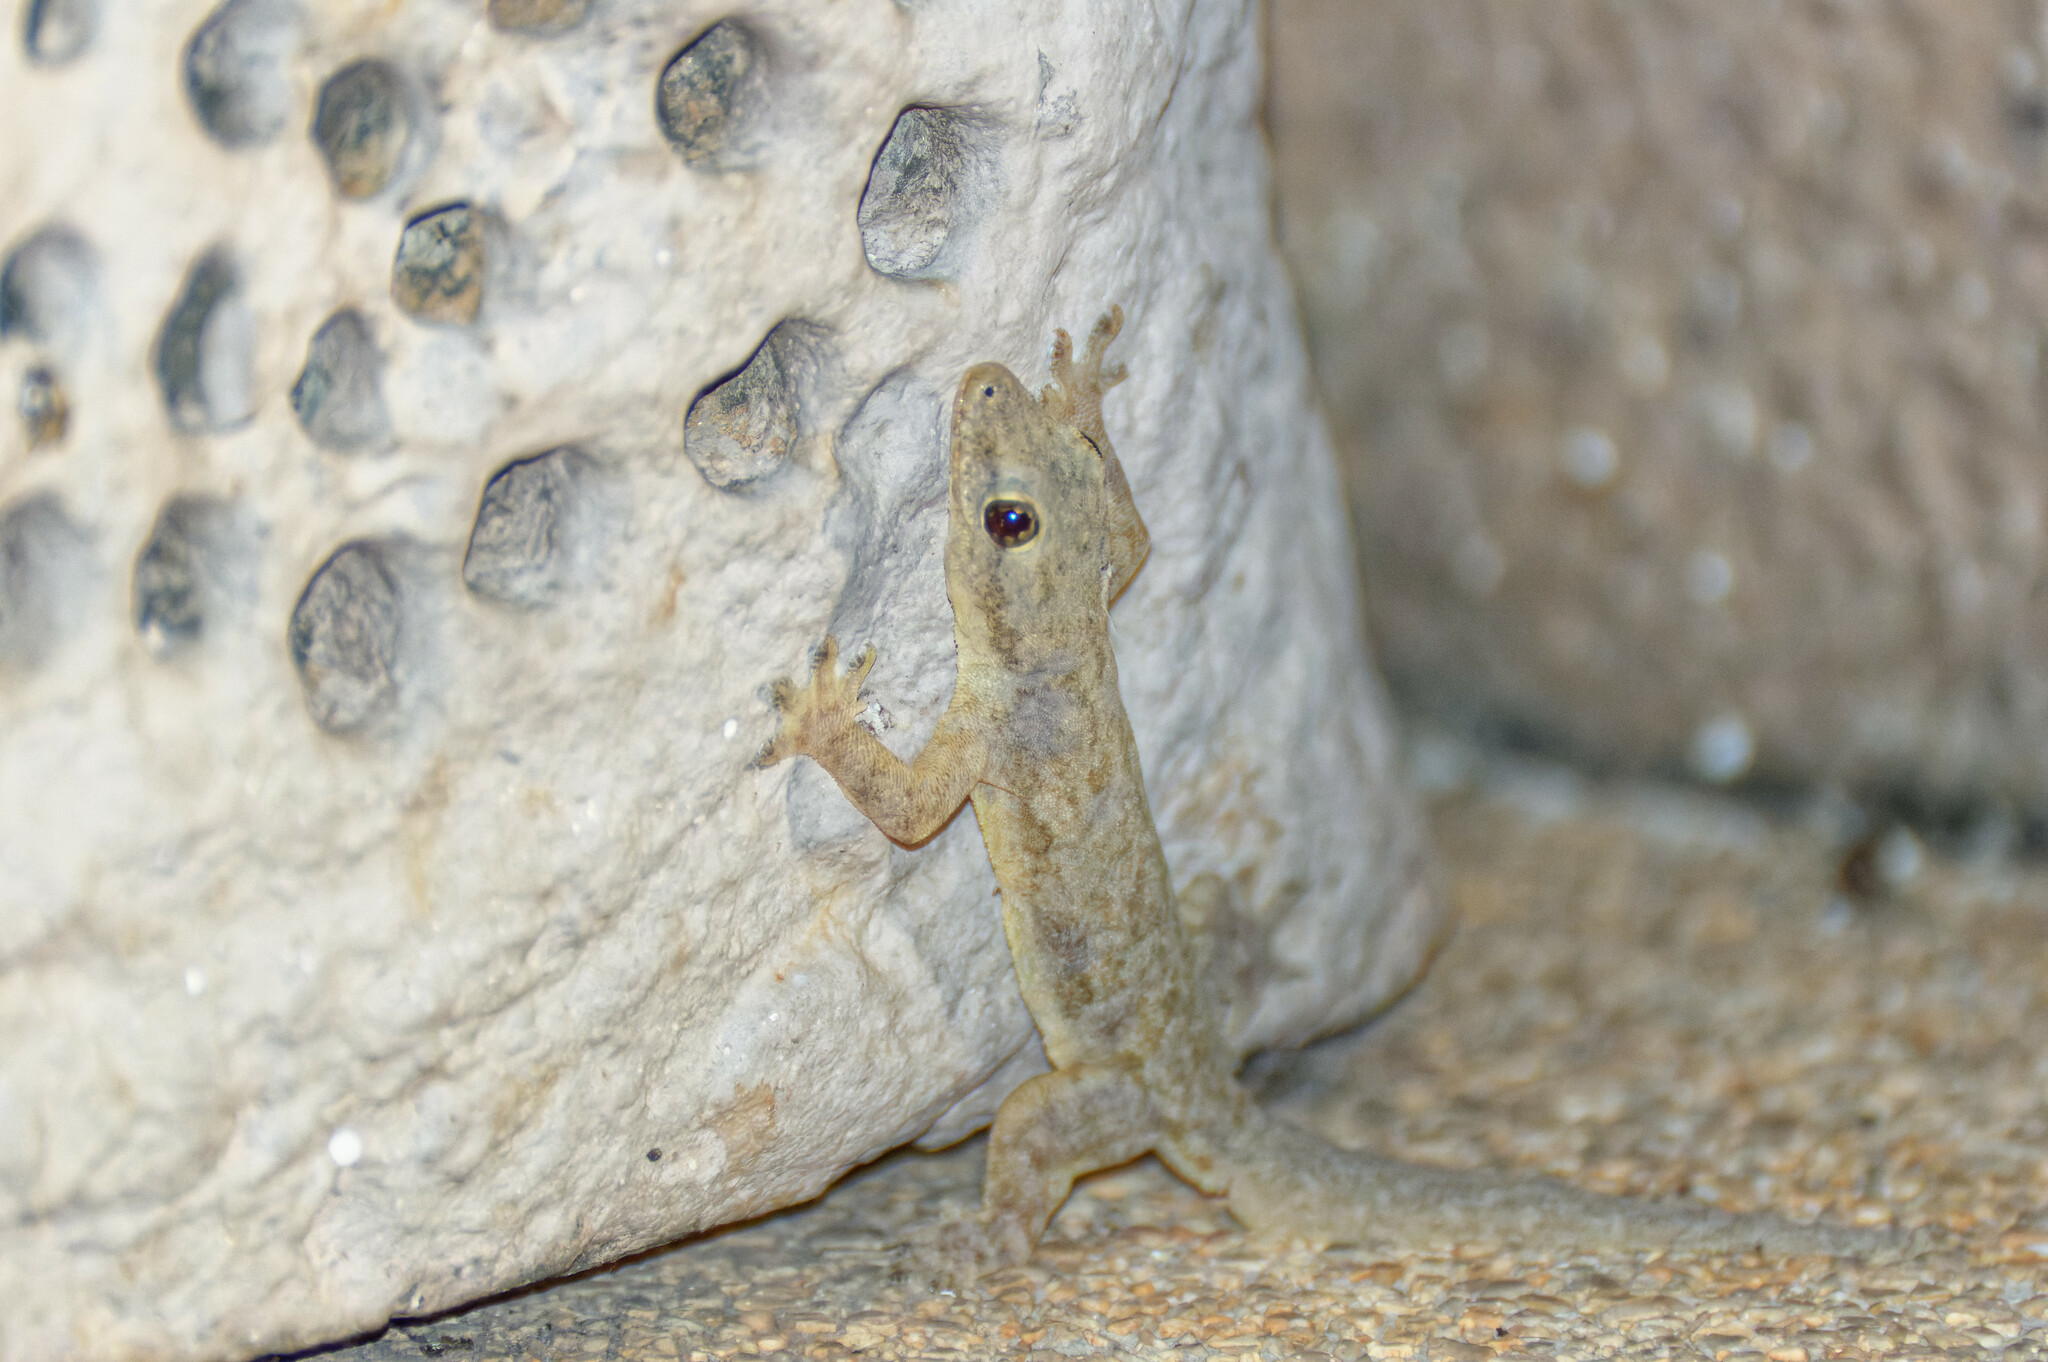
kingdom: Animalia
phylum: Chordata
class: Squamata
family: Gekkonidae
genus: Hemidactylus
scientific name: Hemidactylus platyurus
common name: Flat-tailed house gecko
